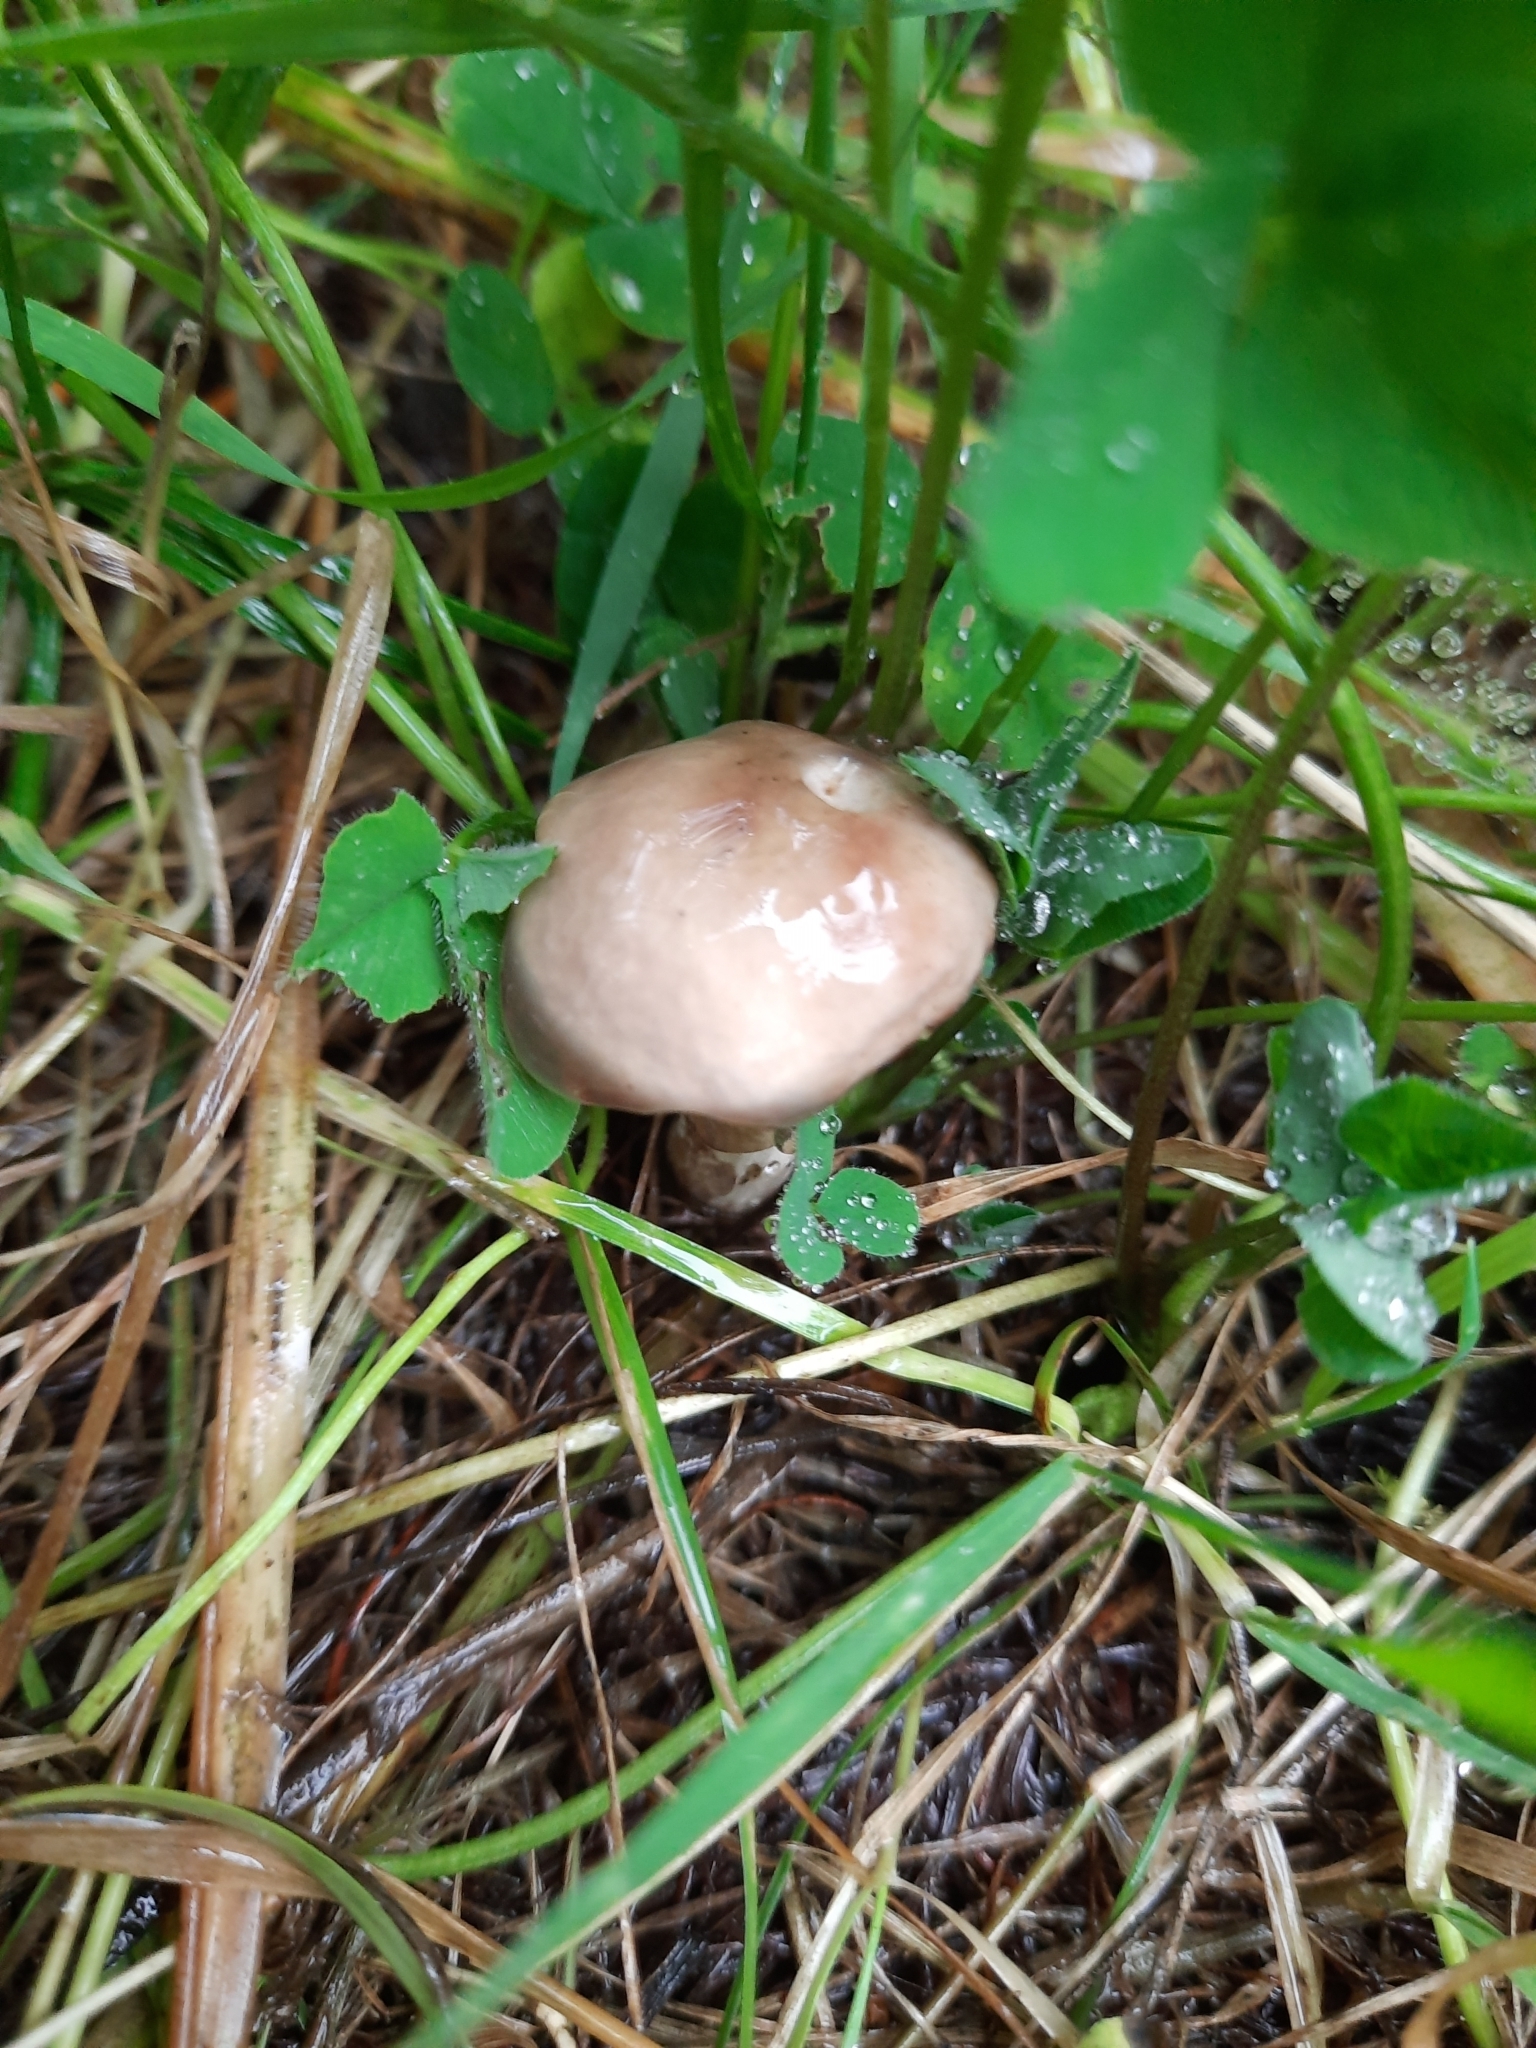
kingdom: Fungi
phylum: Basidiomycota
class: Agaricomycetes
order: Boletales
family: Suillaceae
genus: Suillus
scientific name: Suillus viscidus
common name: Sticky bolete
